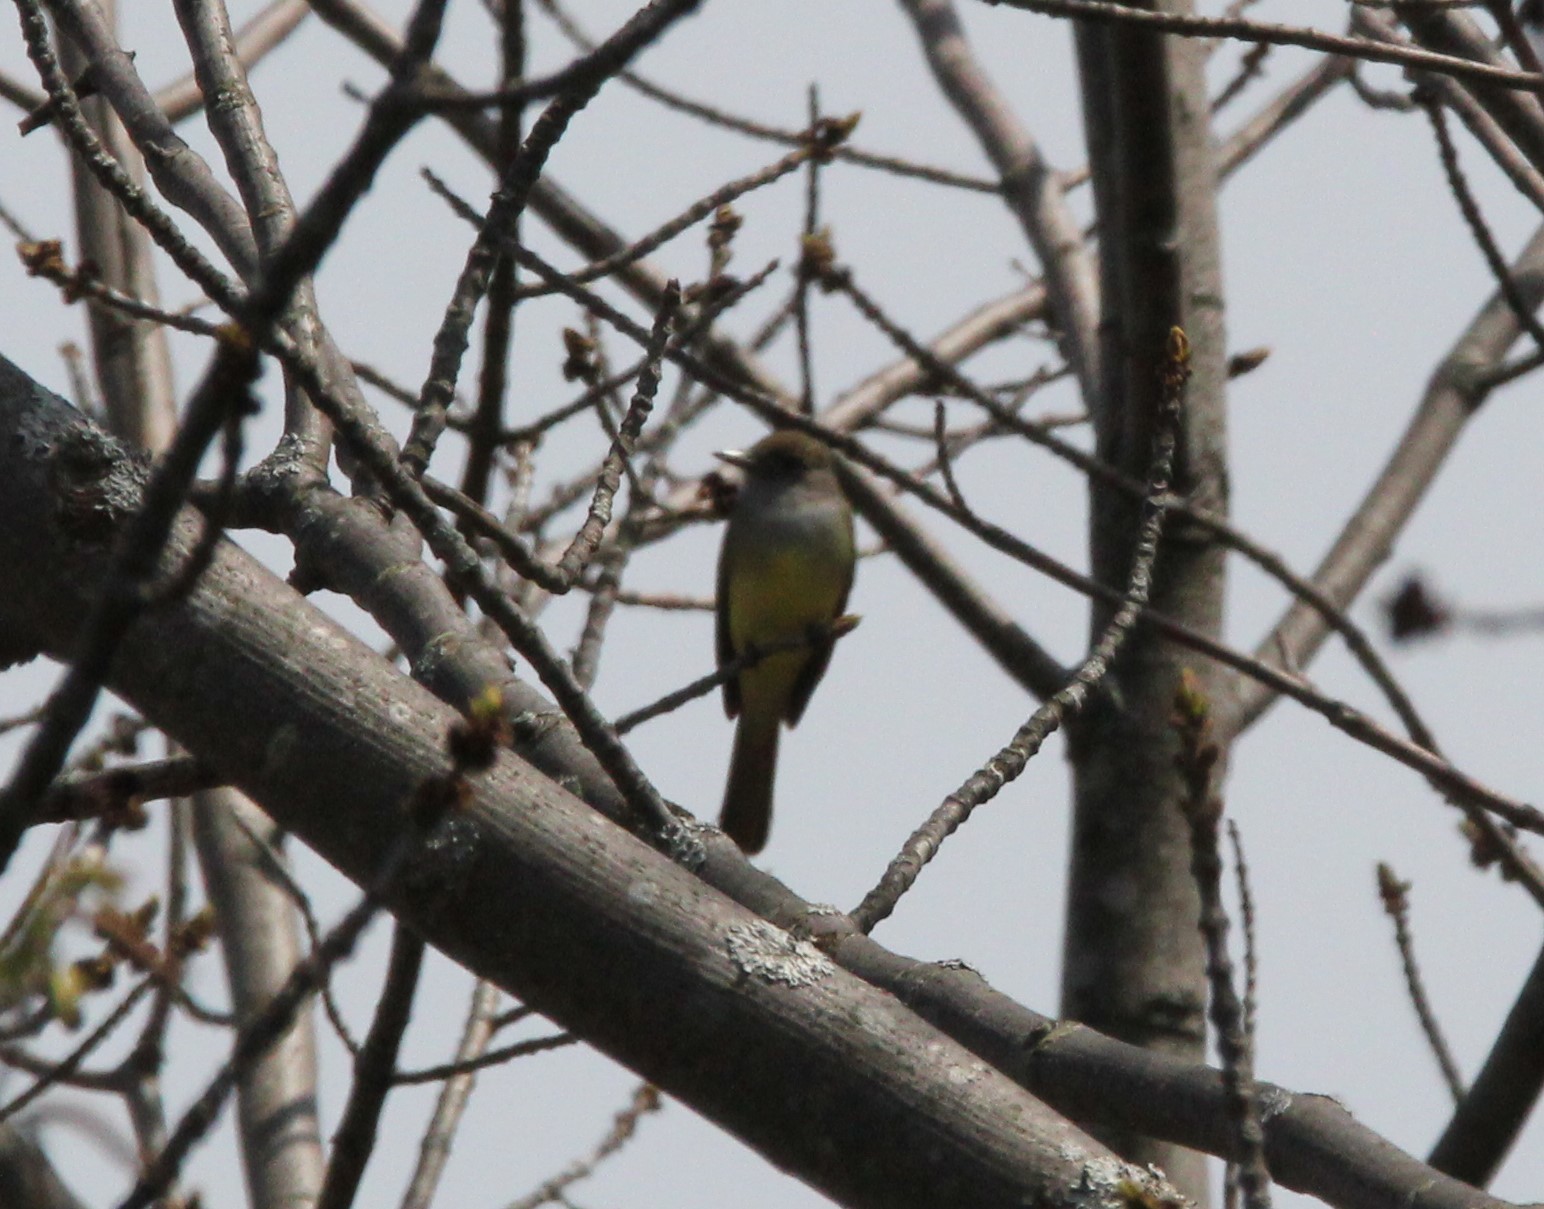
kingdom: Animalia
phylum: Chordata
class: Aves
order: Passeriformes
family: Tyrannidae
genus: Myiarchus
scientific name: Myiarchus crinitus
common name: Great crested flycatcher
